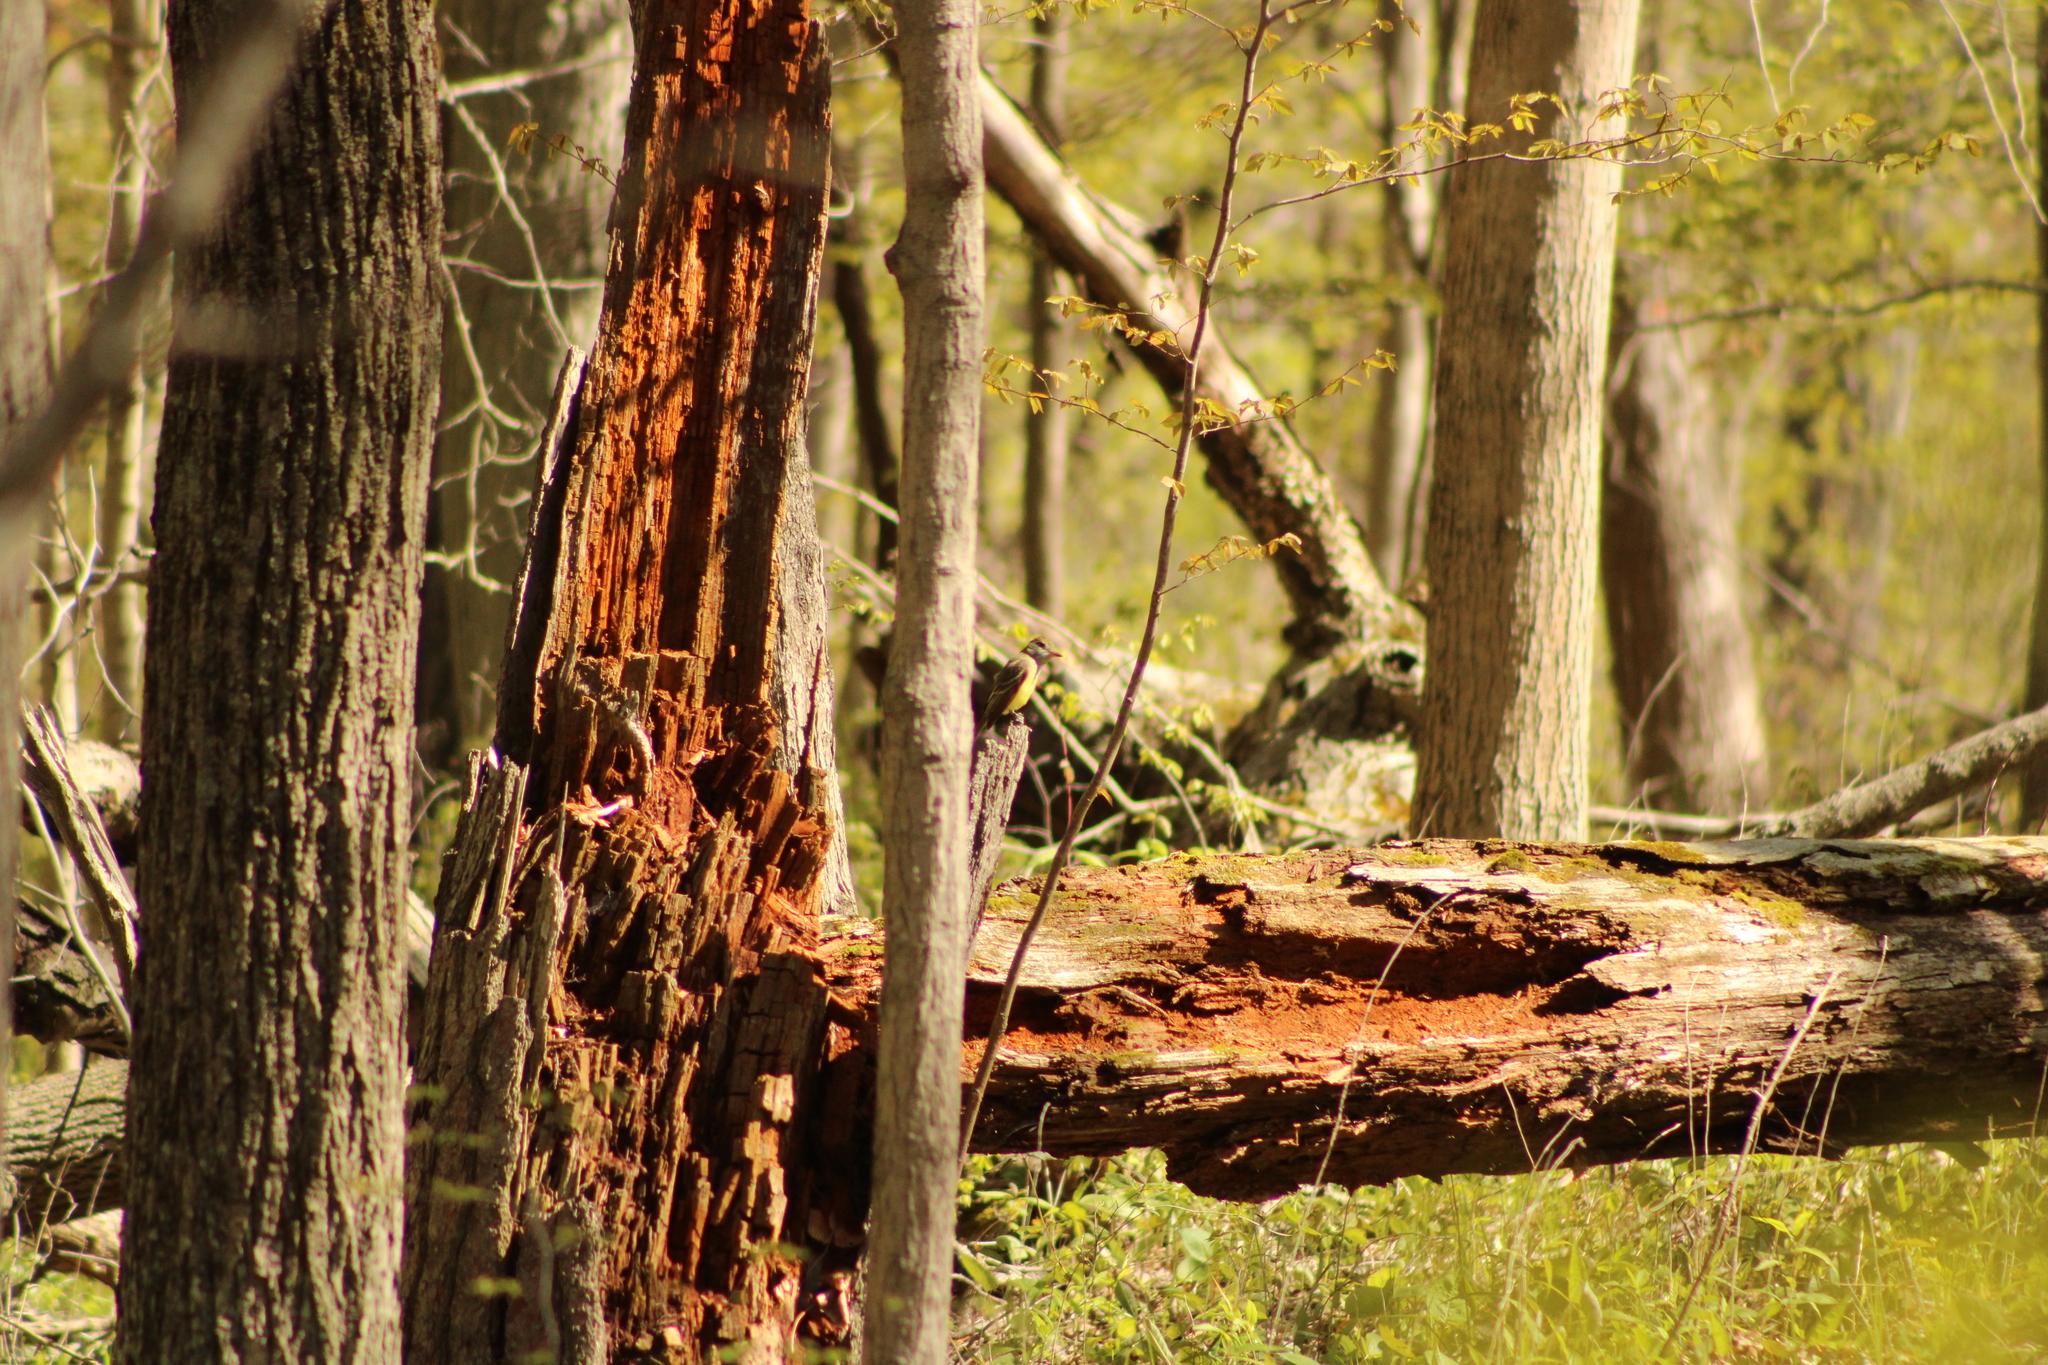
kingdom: Animalia
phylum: Chordata
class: Aves
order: Passeriformes
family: Tyrannidae
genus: Myiarchus
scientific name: Myiarchus crinitus
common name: Great crested flycatcher
